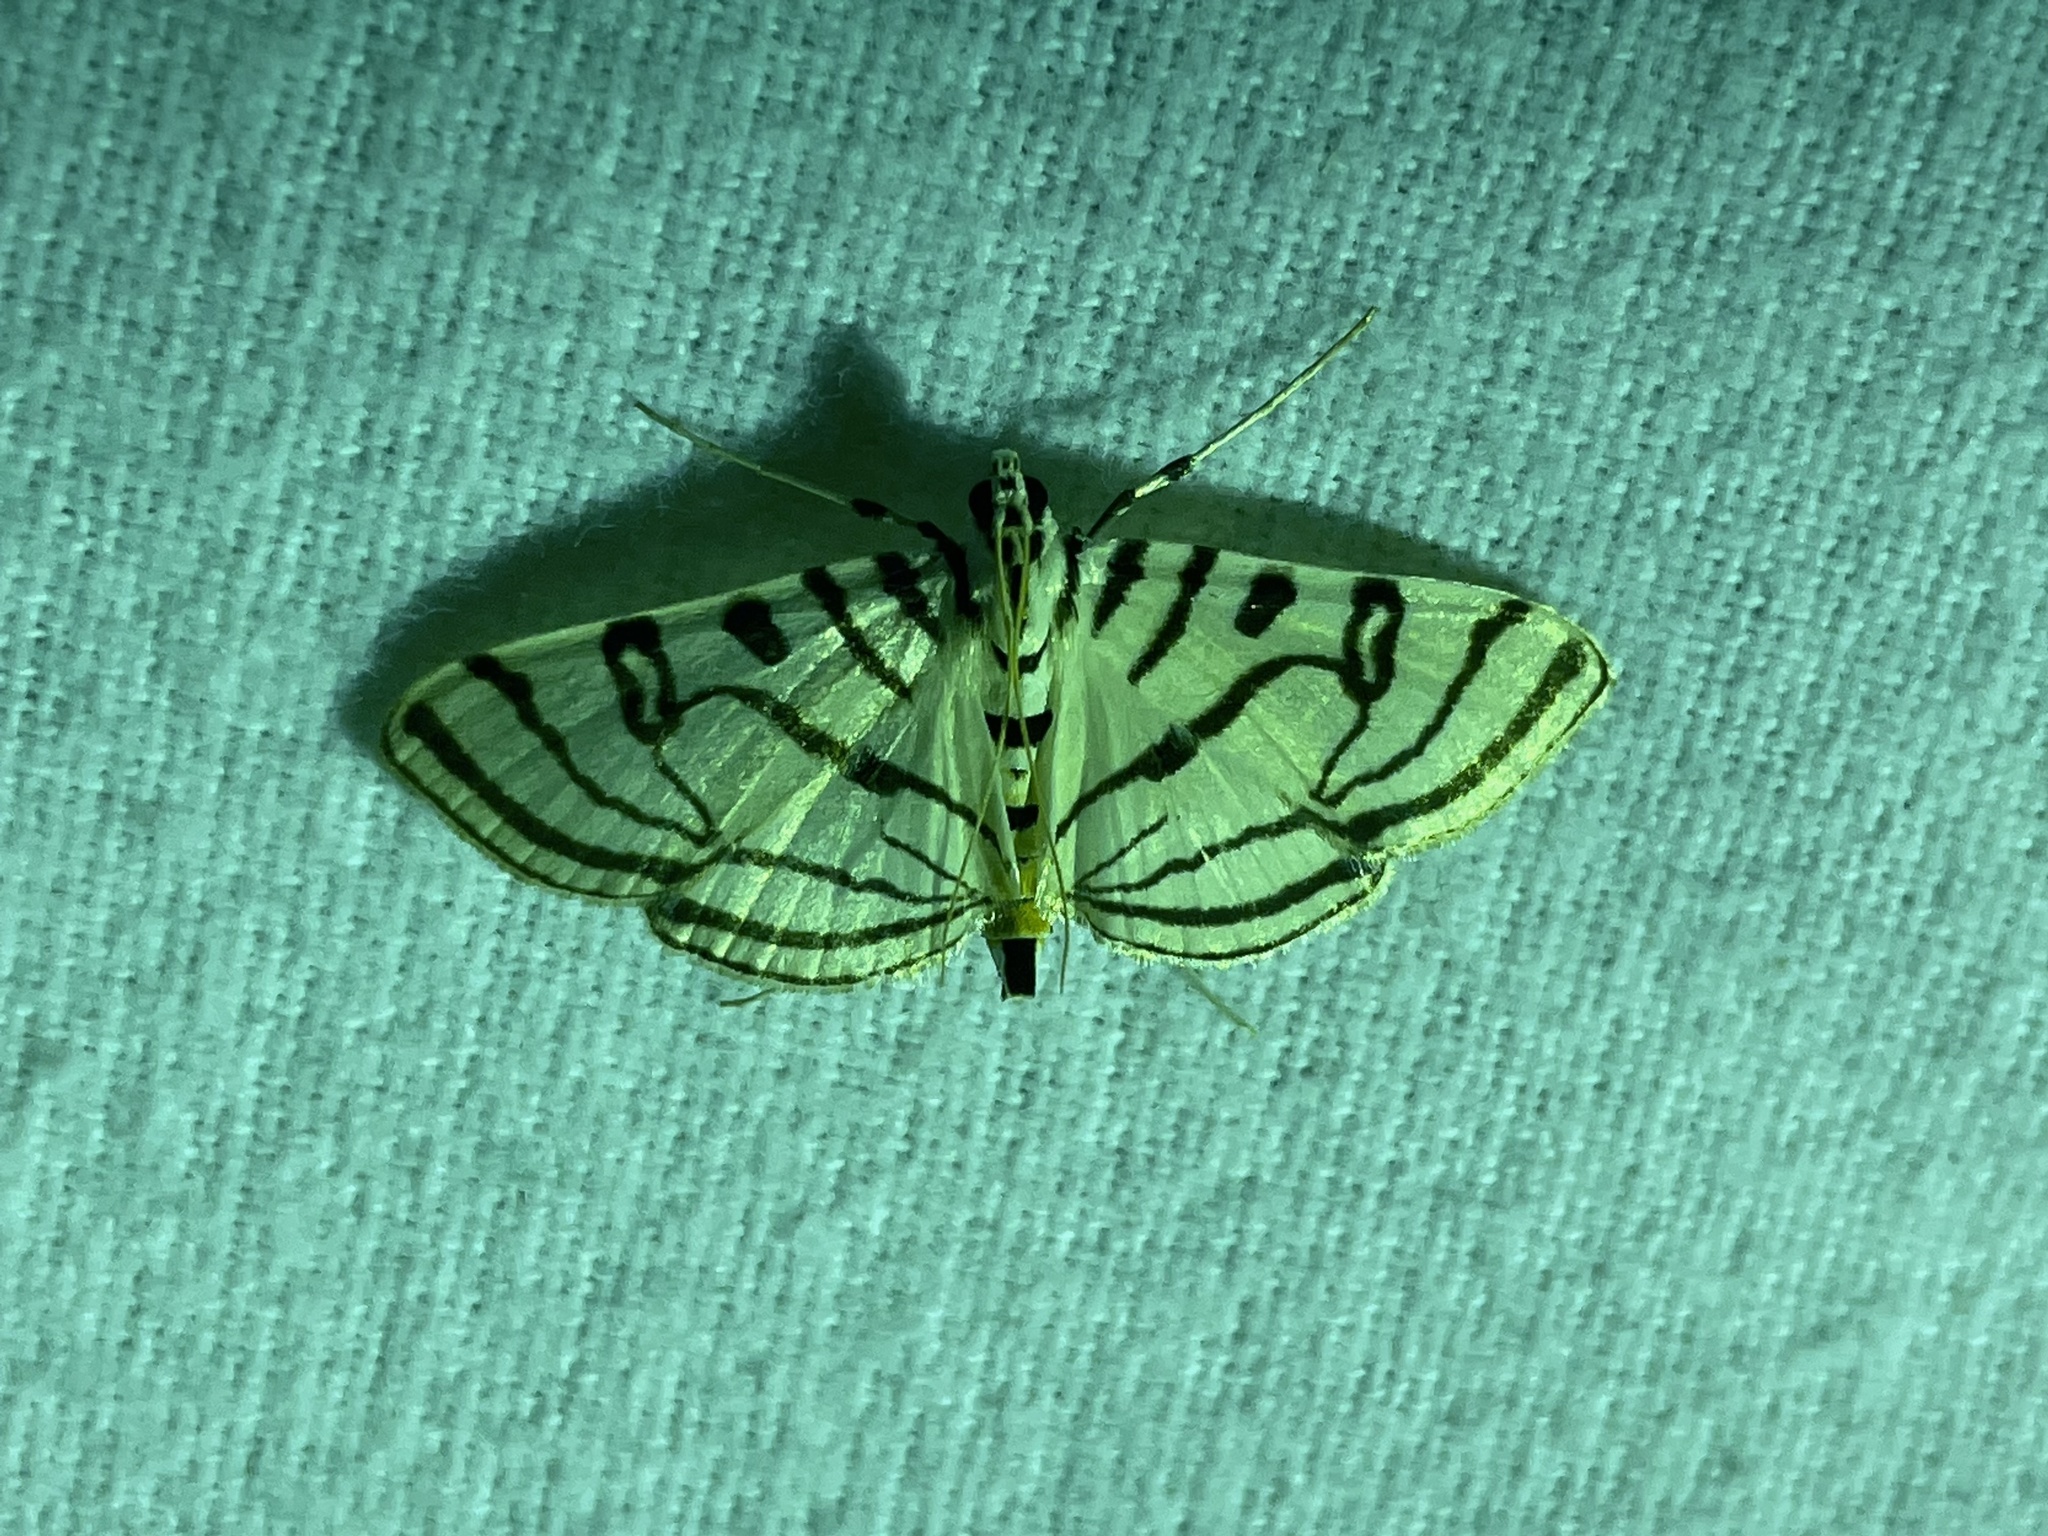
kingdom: Animalia
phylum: Arthropoda
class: Insecta
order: Lepidoptera
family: Crambidae
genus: Conchylodes
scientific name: Conchylodes ovulalis
